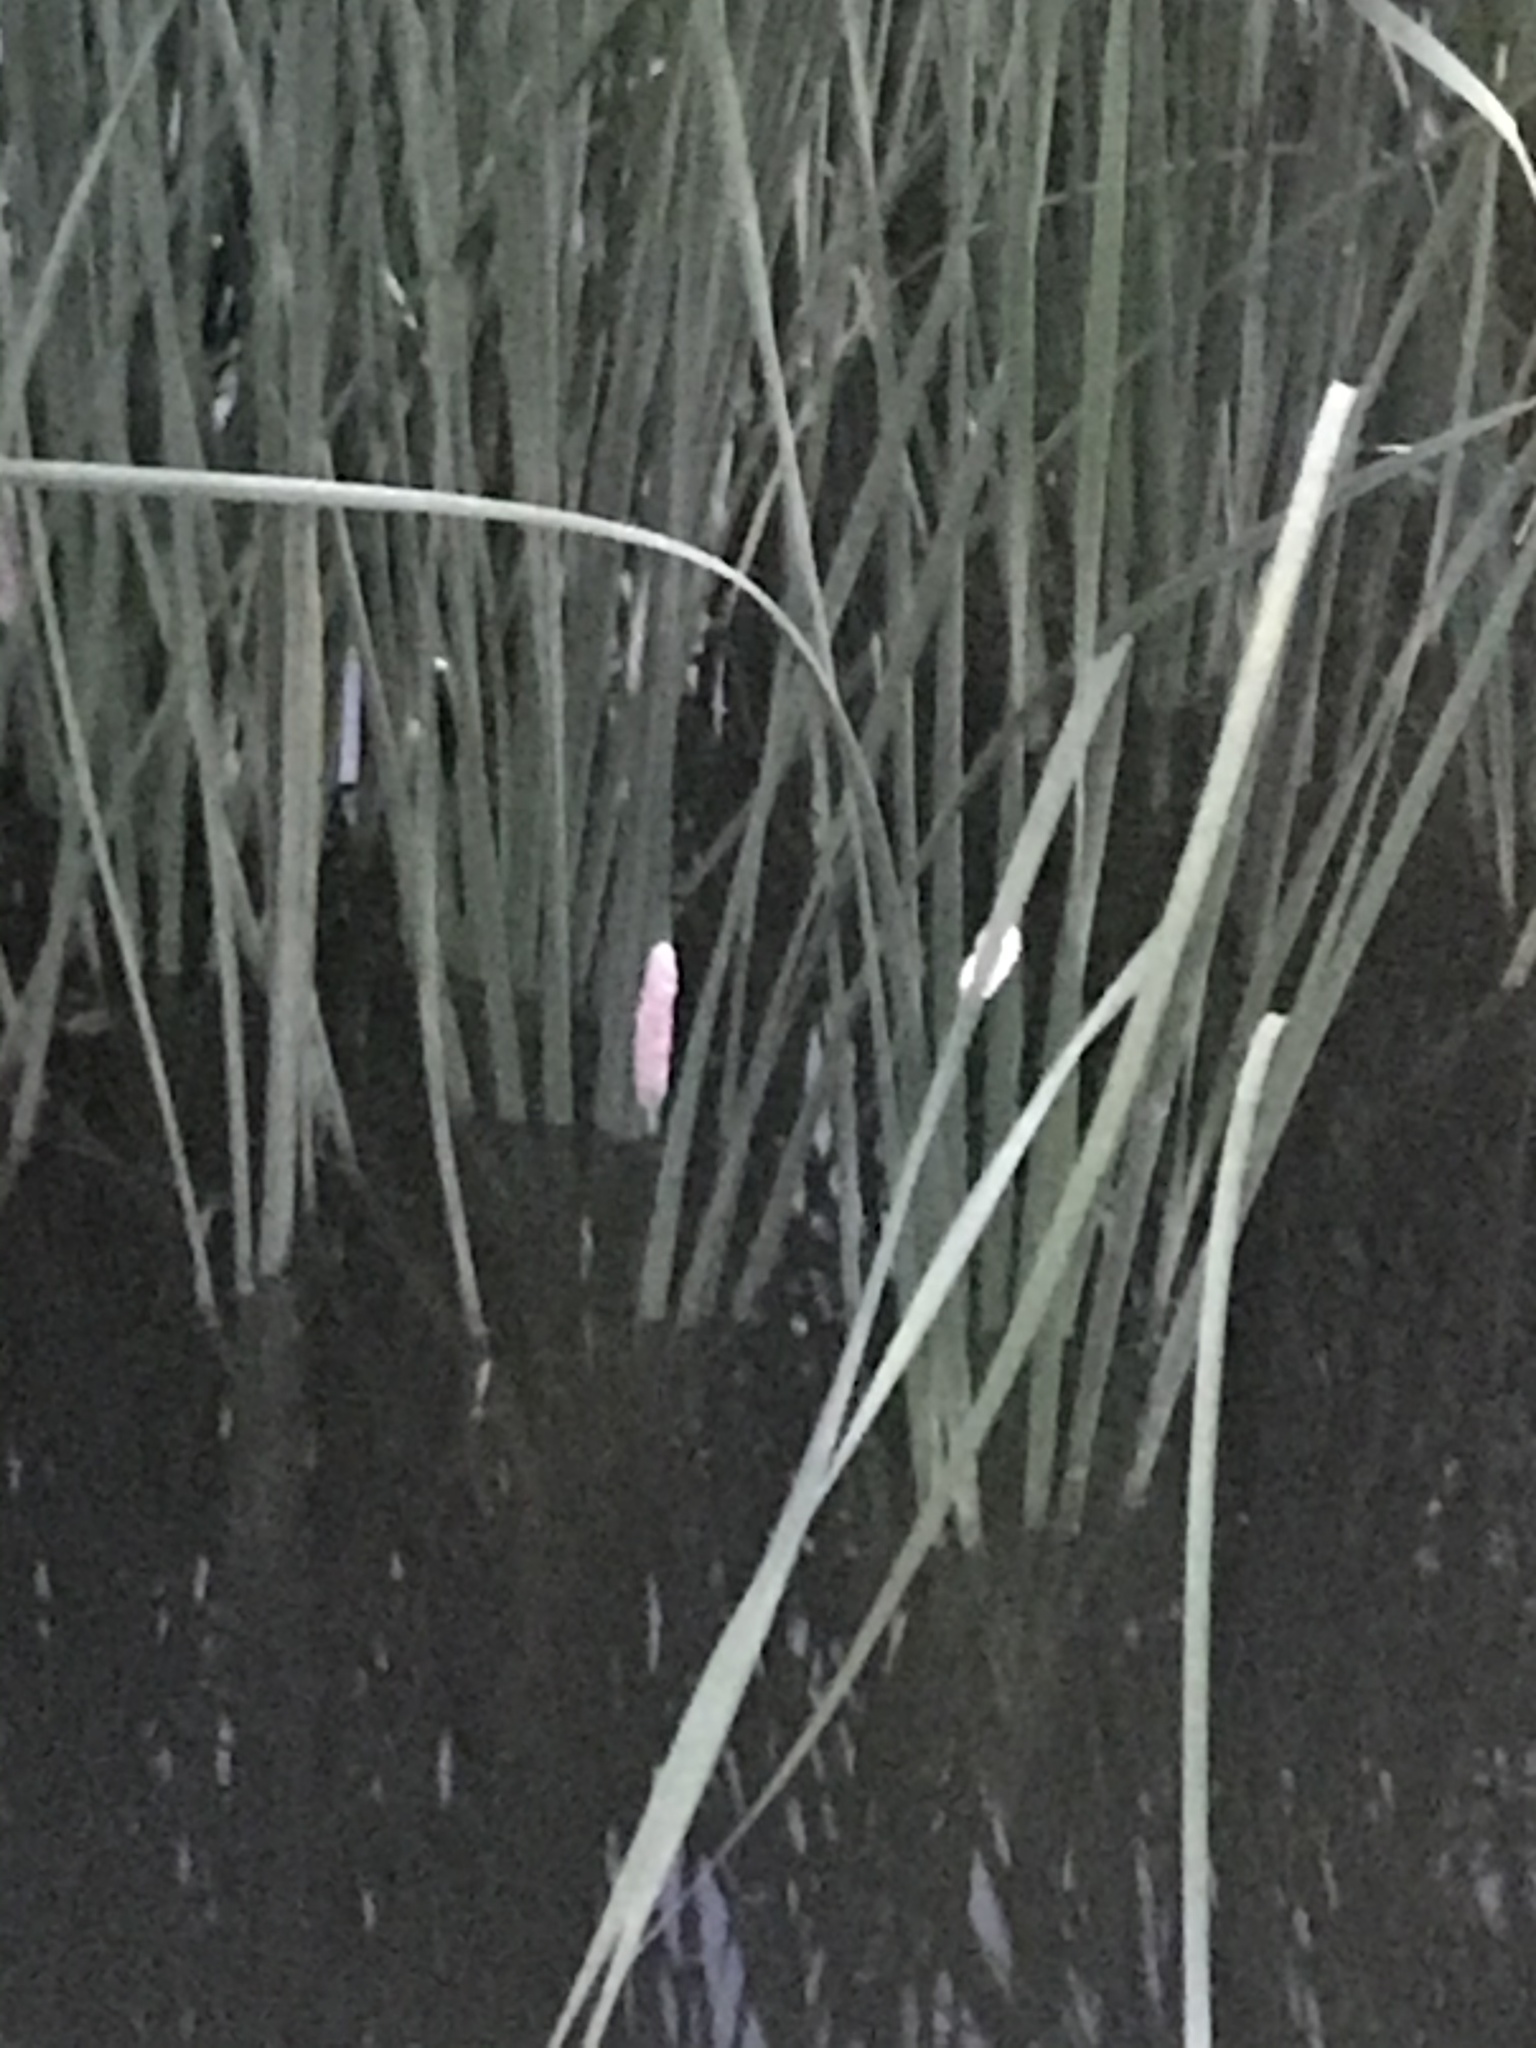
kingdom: Animalia
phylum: Mollusca
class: Gastropoda
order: Architaenioglossa
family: Ampullariidae
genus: Pomacea
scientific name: Pomacea maculata
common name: Giant applesnail
